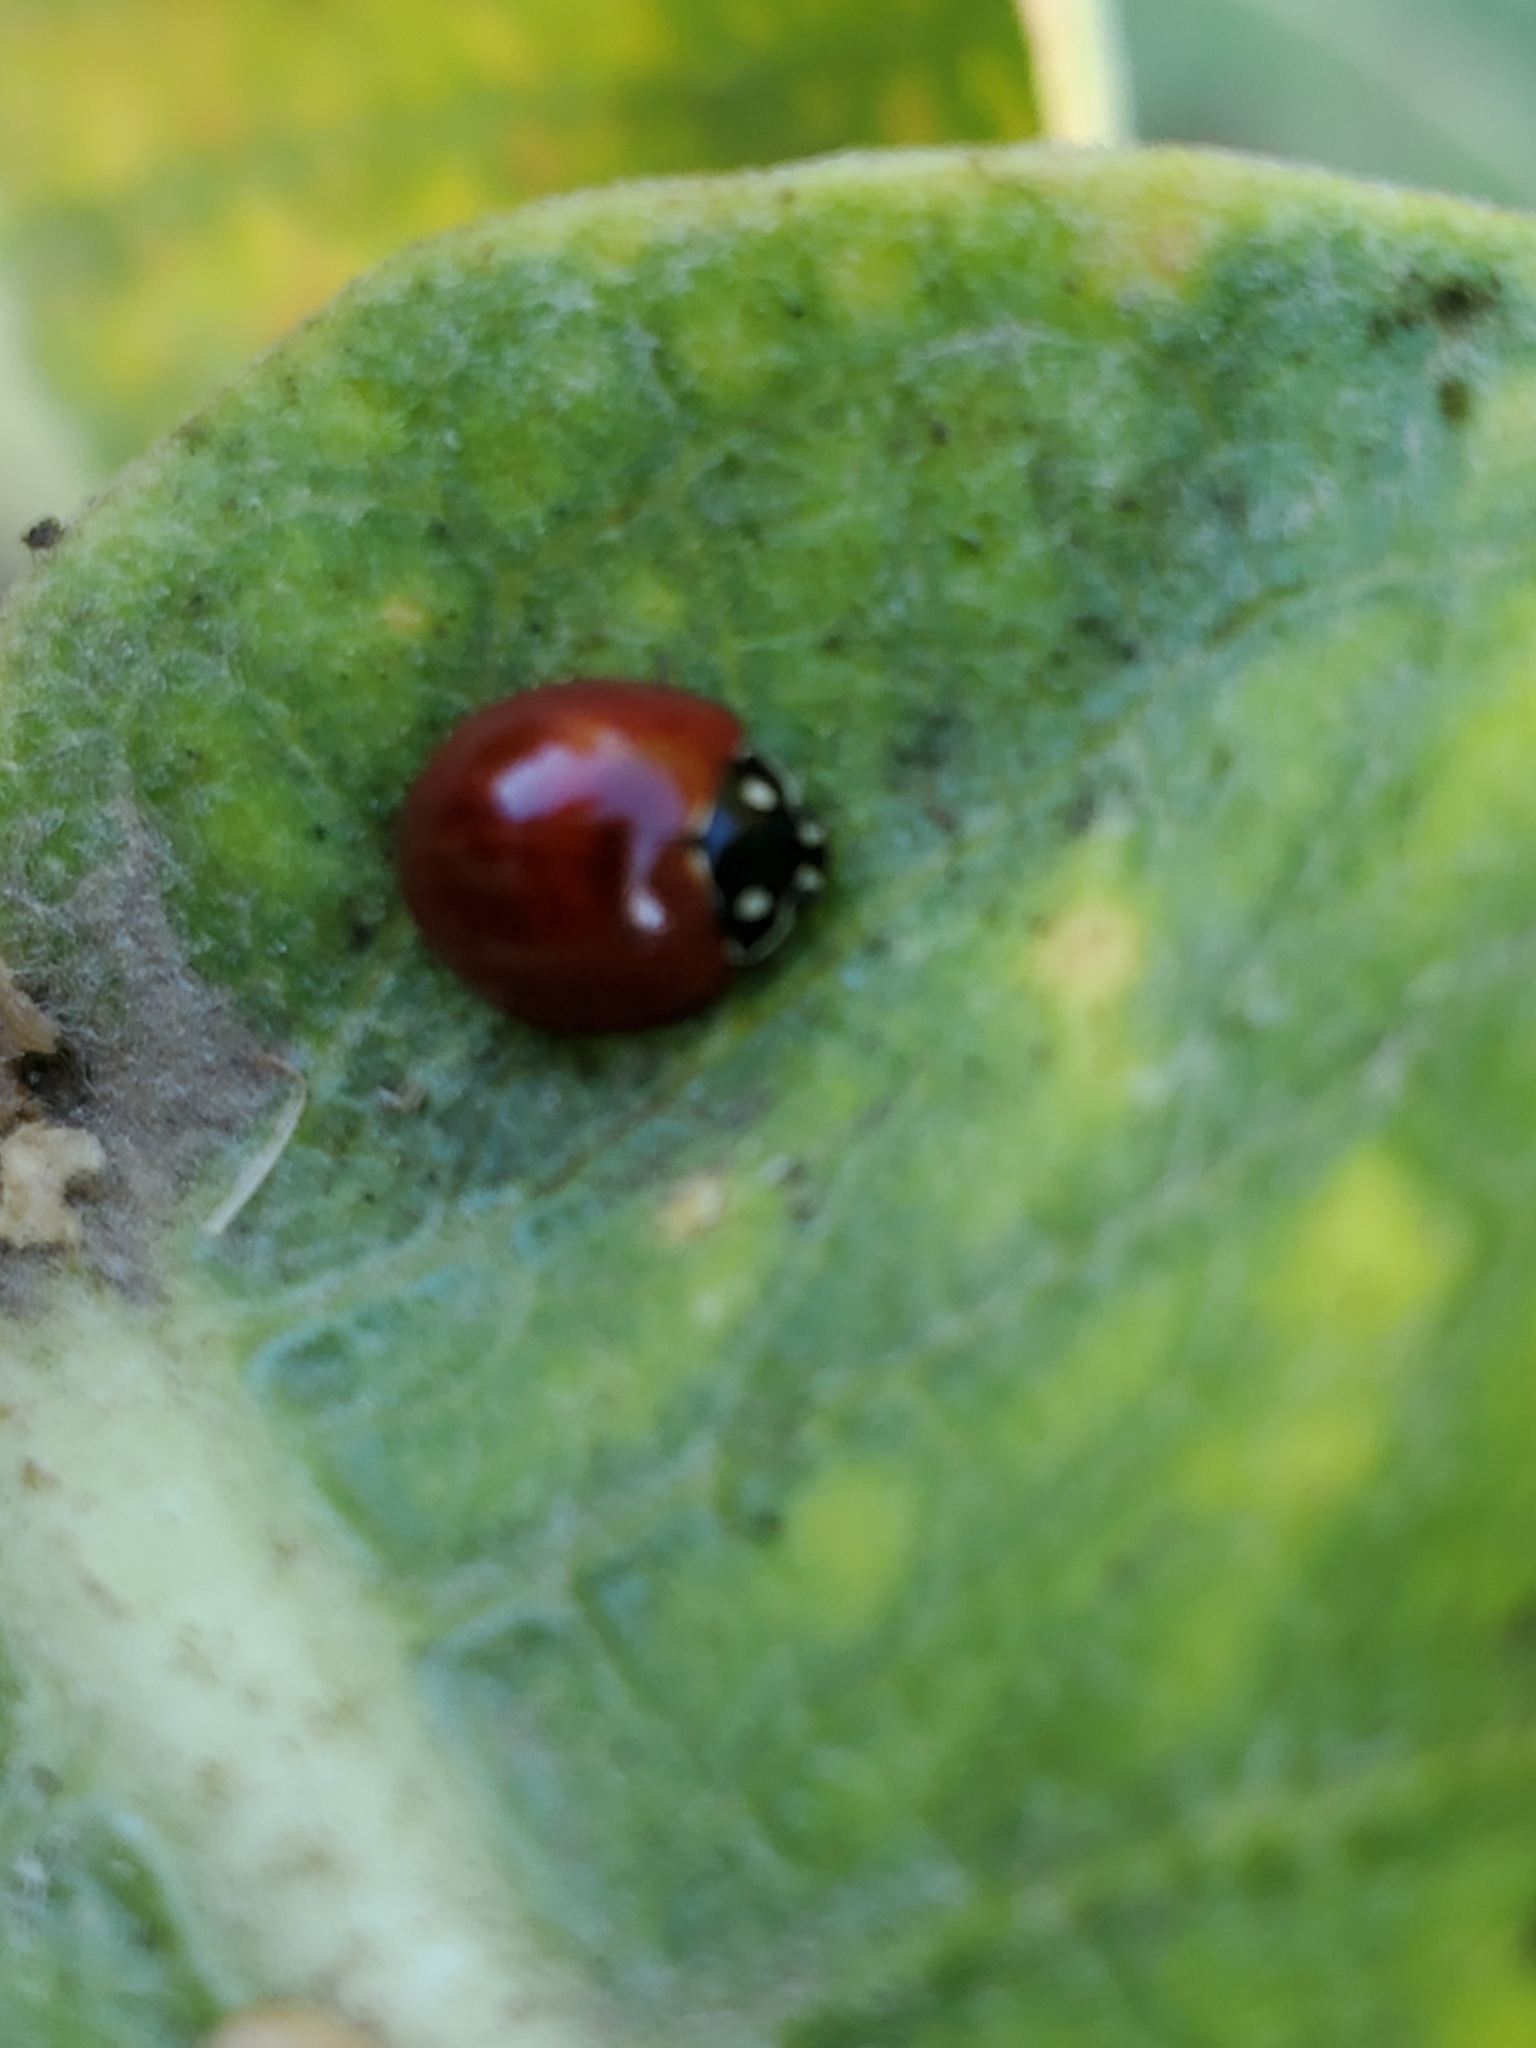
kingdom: Animalia
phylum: Arthropoda
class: Insecta
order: Coleoptera
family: Coccinellidae
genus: Cycloneda
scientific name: Cycloneda sanguinea
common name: Ladybird beetle
